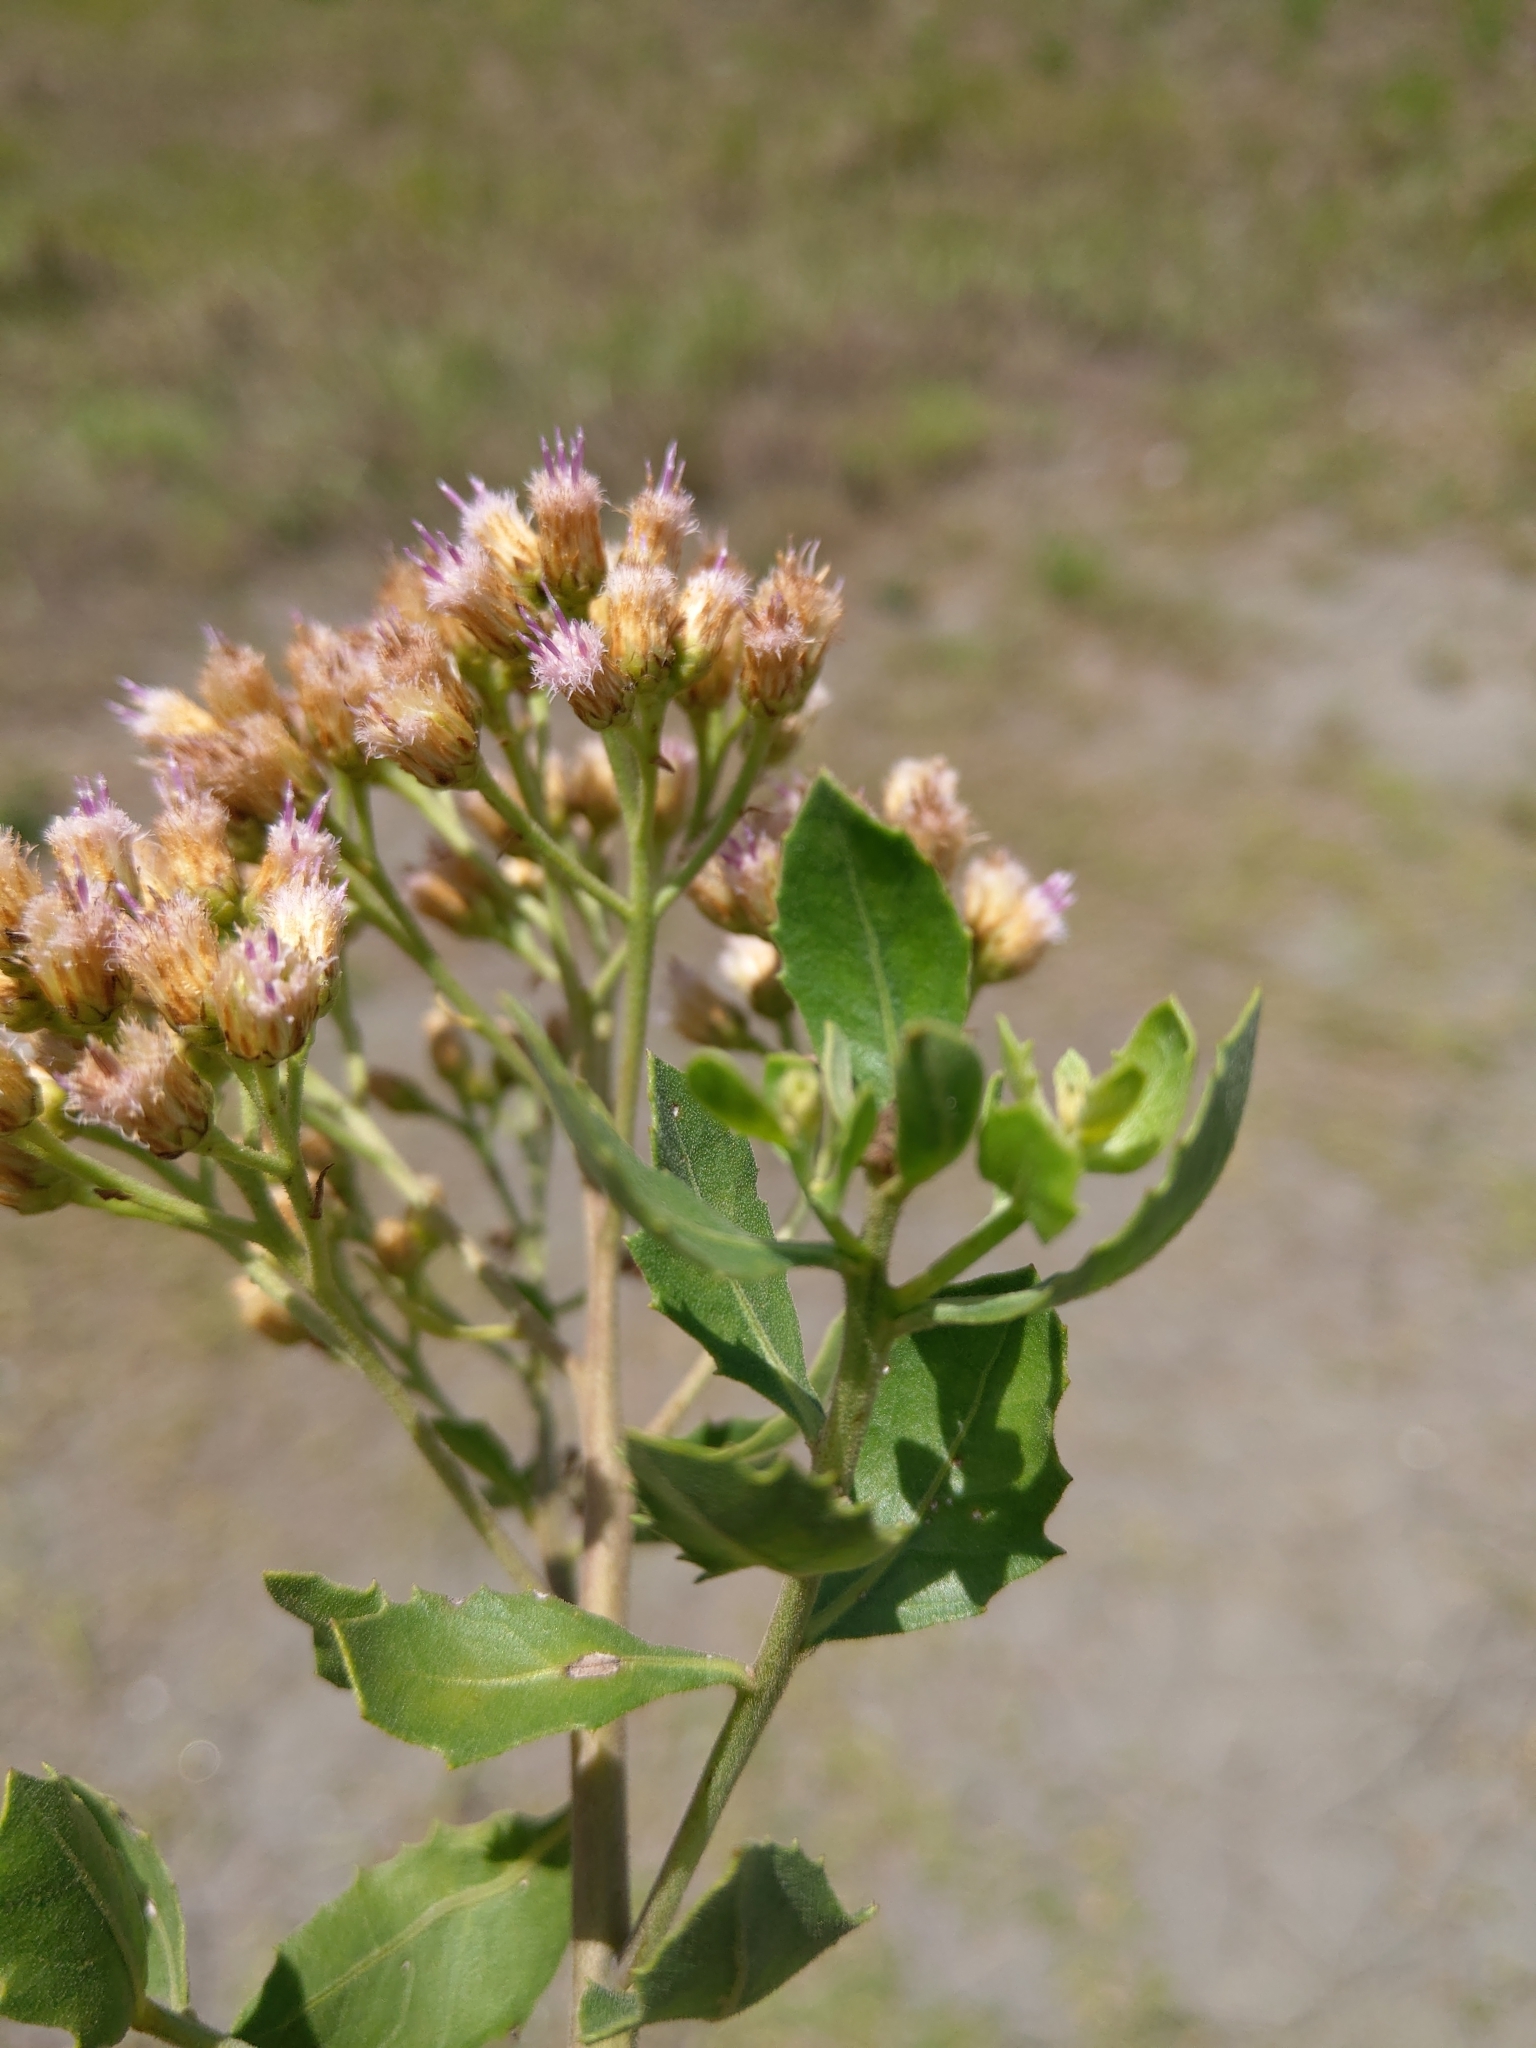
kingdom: Plantae
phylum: Tracheophyta
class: Magnoliopsida
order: Asterales
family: Asteraceae
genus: Pluchea
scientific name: Pluchea indica
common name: Indian fleabane
